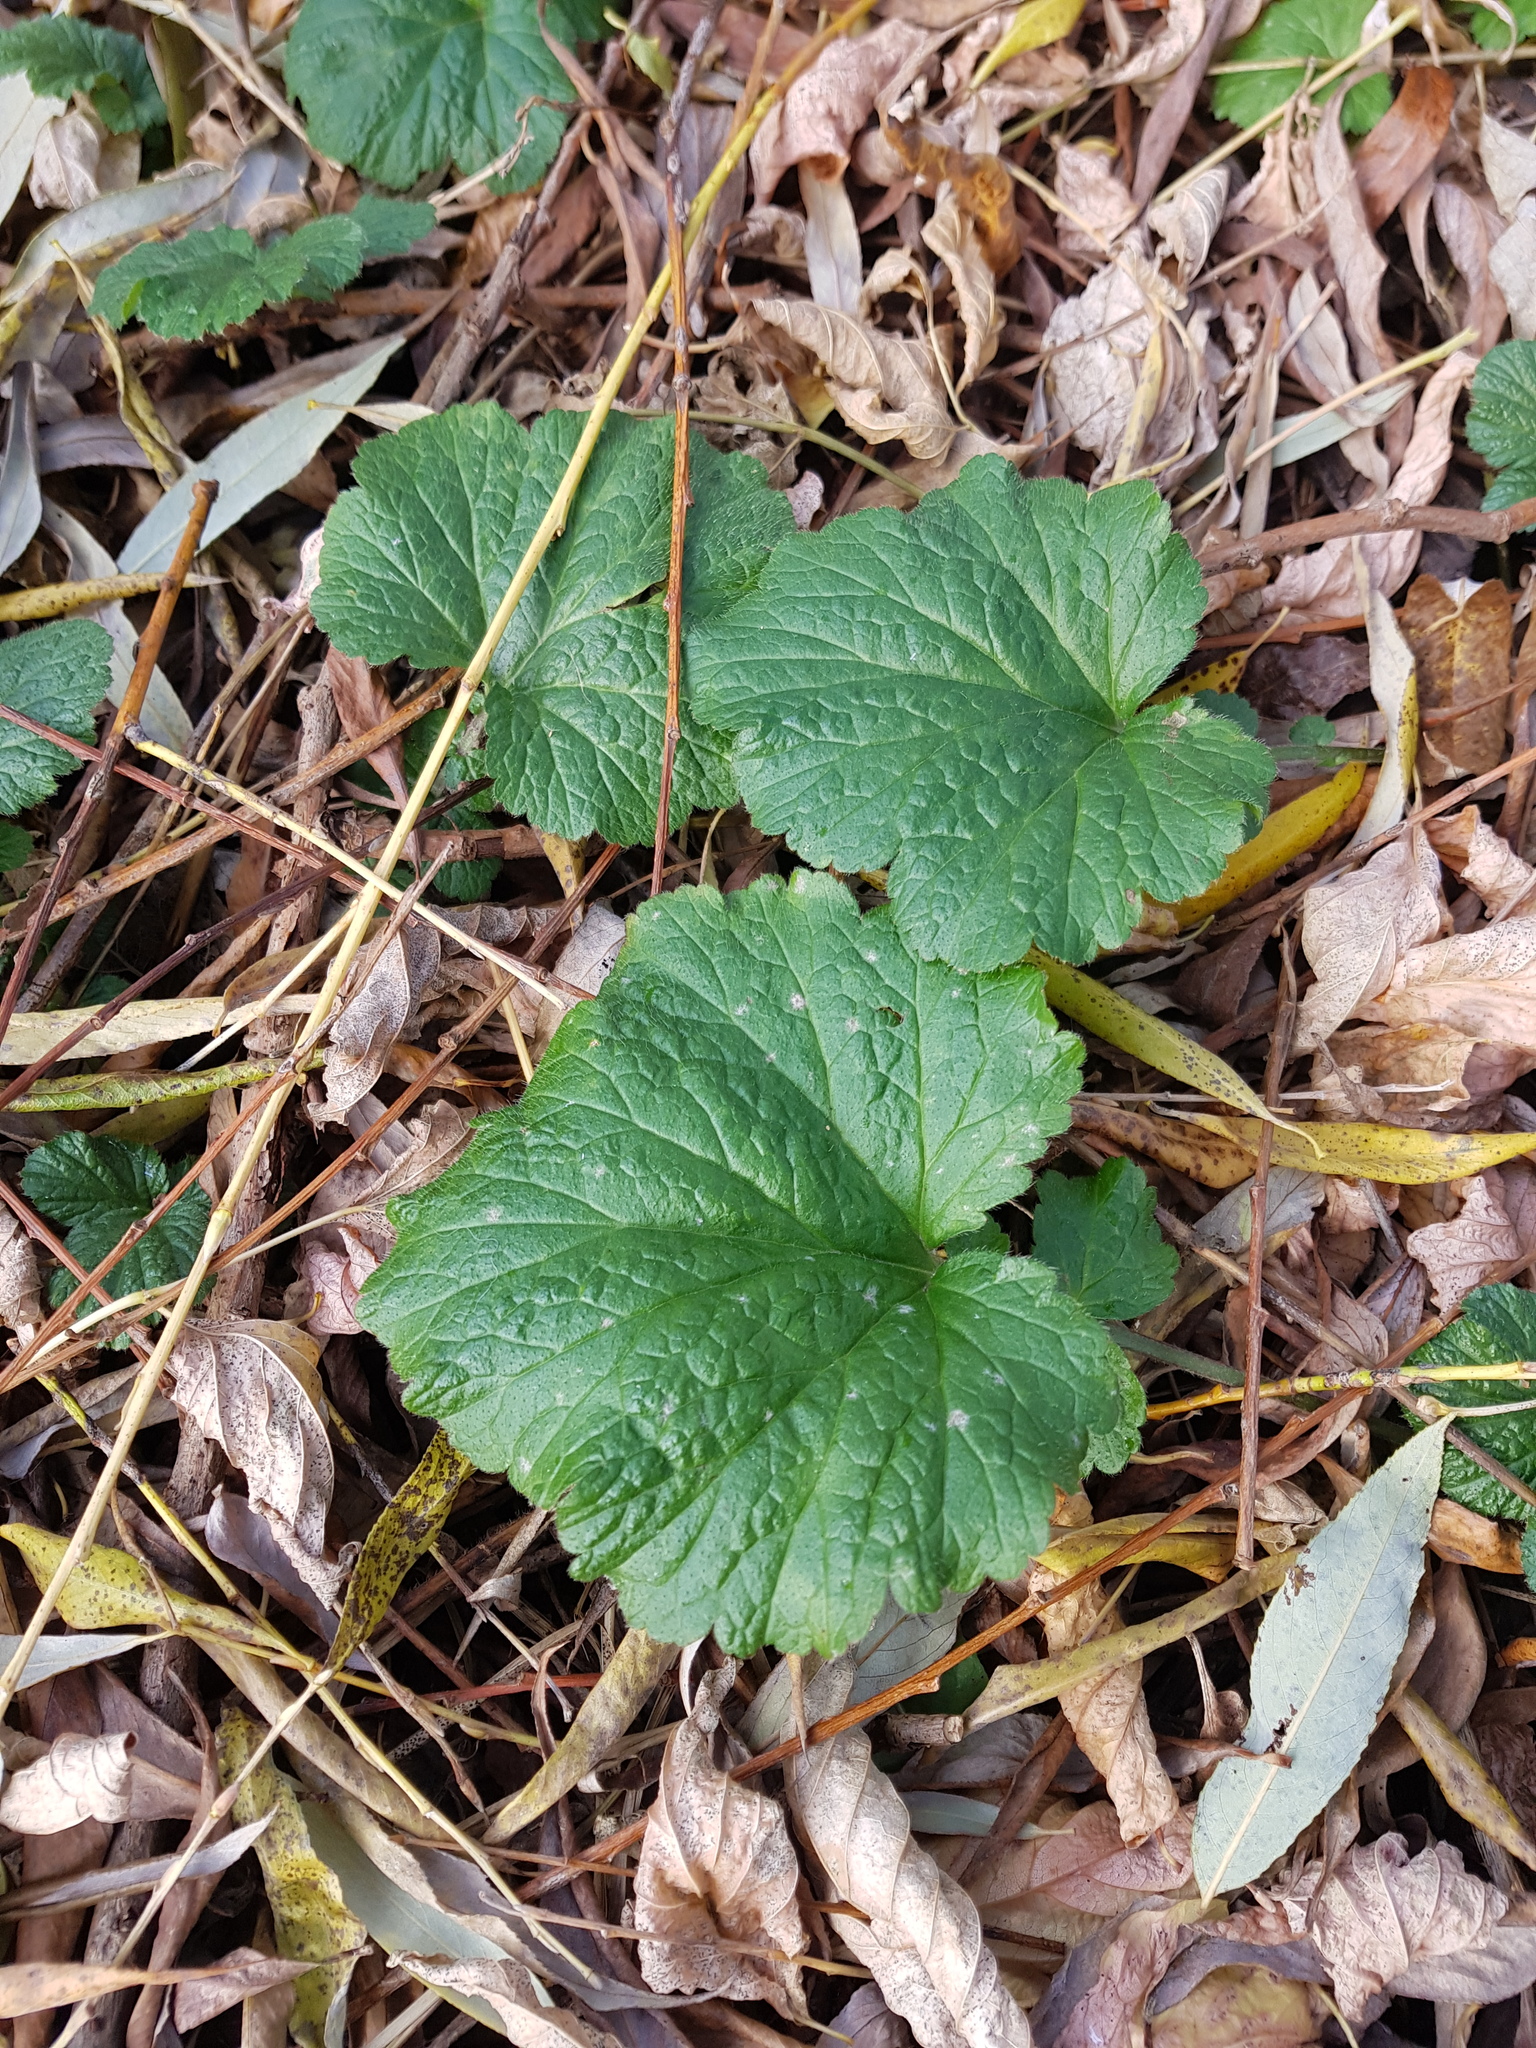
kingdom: Plantae
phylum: Tracheophyta
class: Magnoliopsida
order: Rosales
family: Rosaceae
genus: Geum
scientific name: Geum
